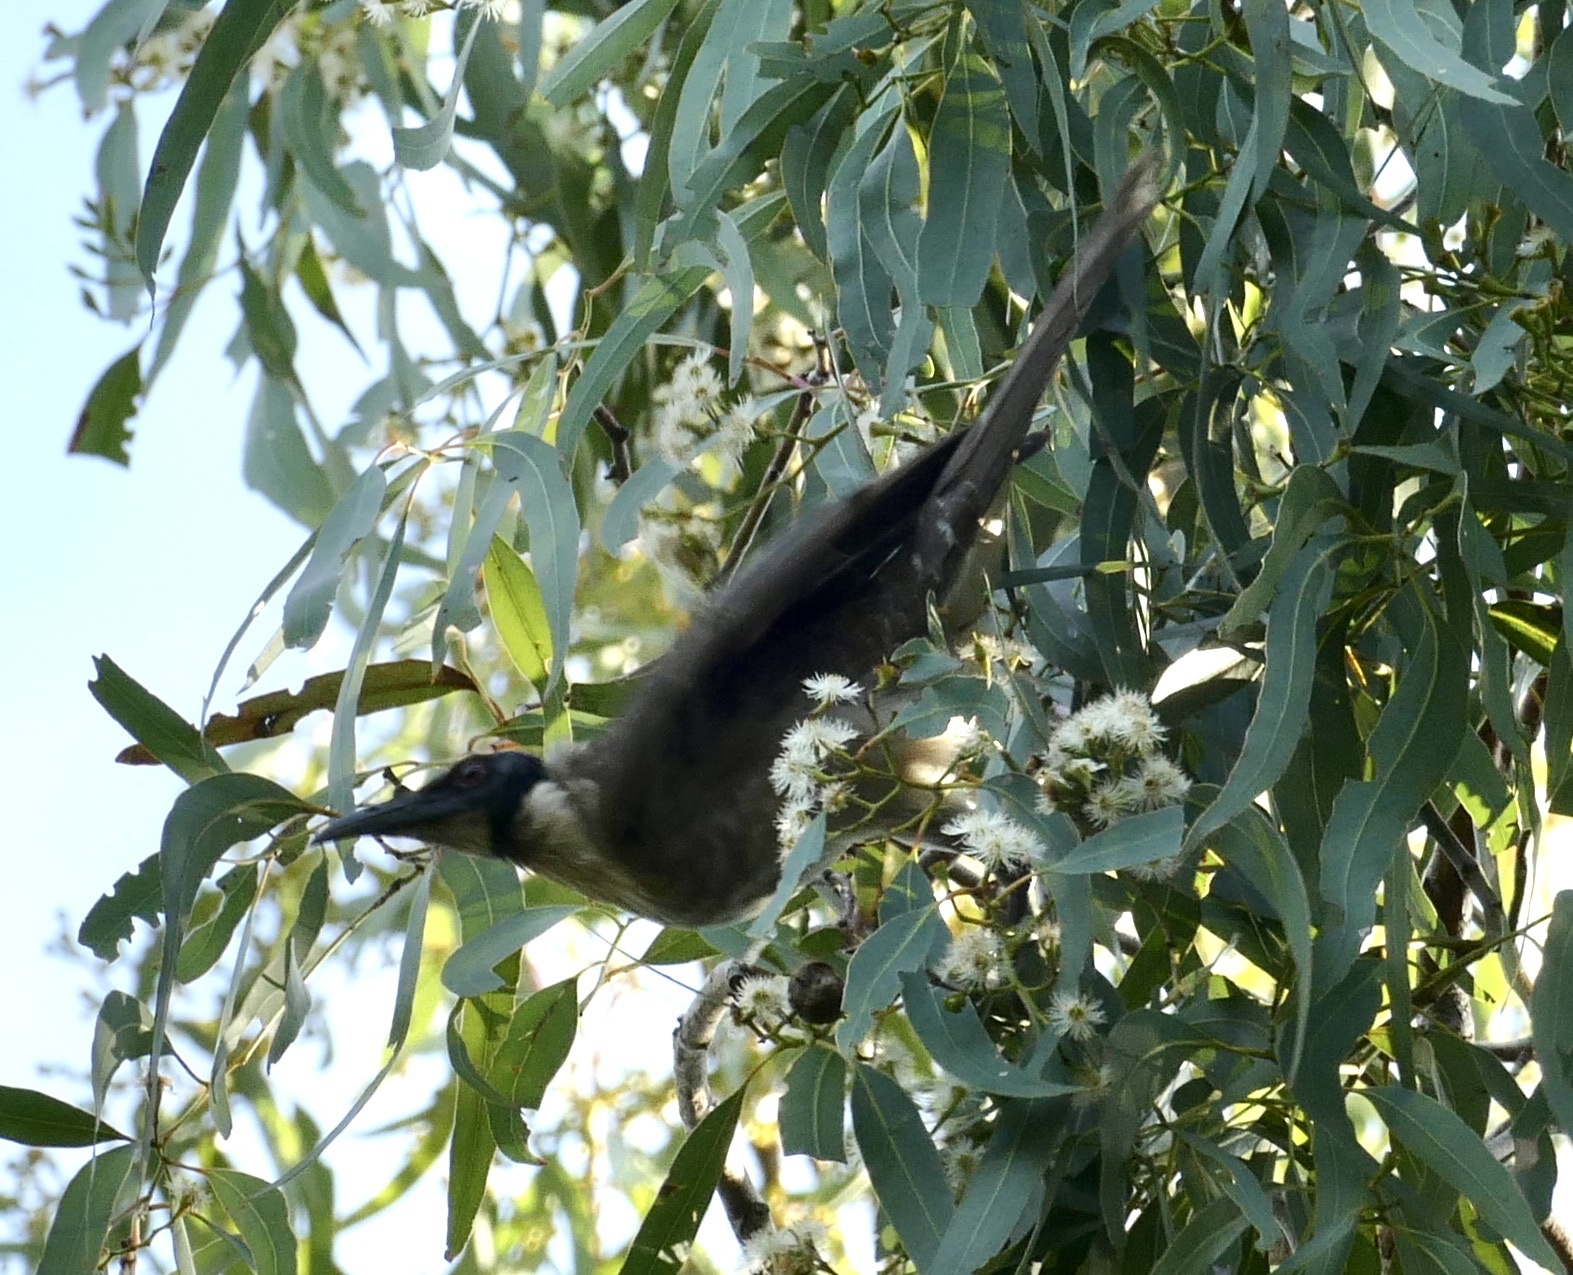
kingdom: Animalia
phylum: Chordata
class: Aves
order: Passeriformes
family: Meliphagidae
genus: Philemon
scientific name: Philemon corniculatus
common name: Noisy friarbird
